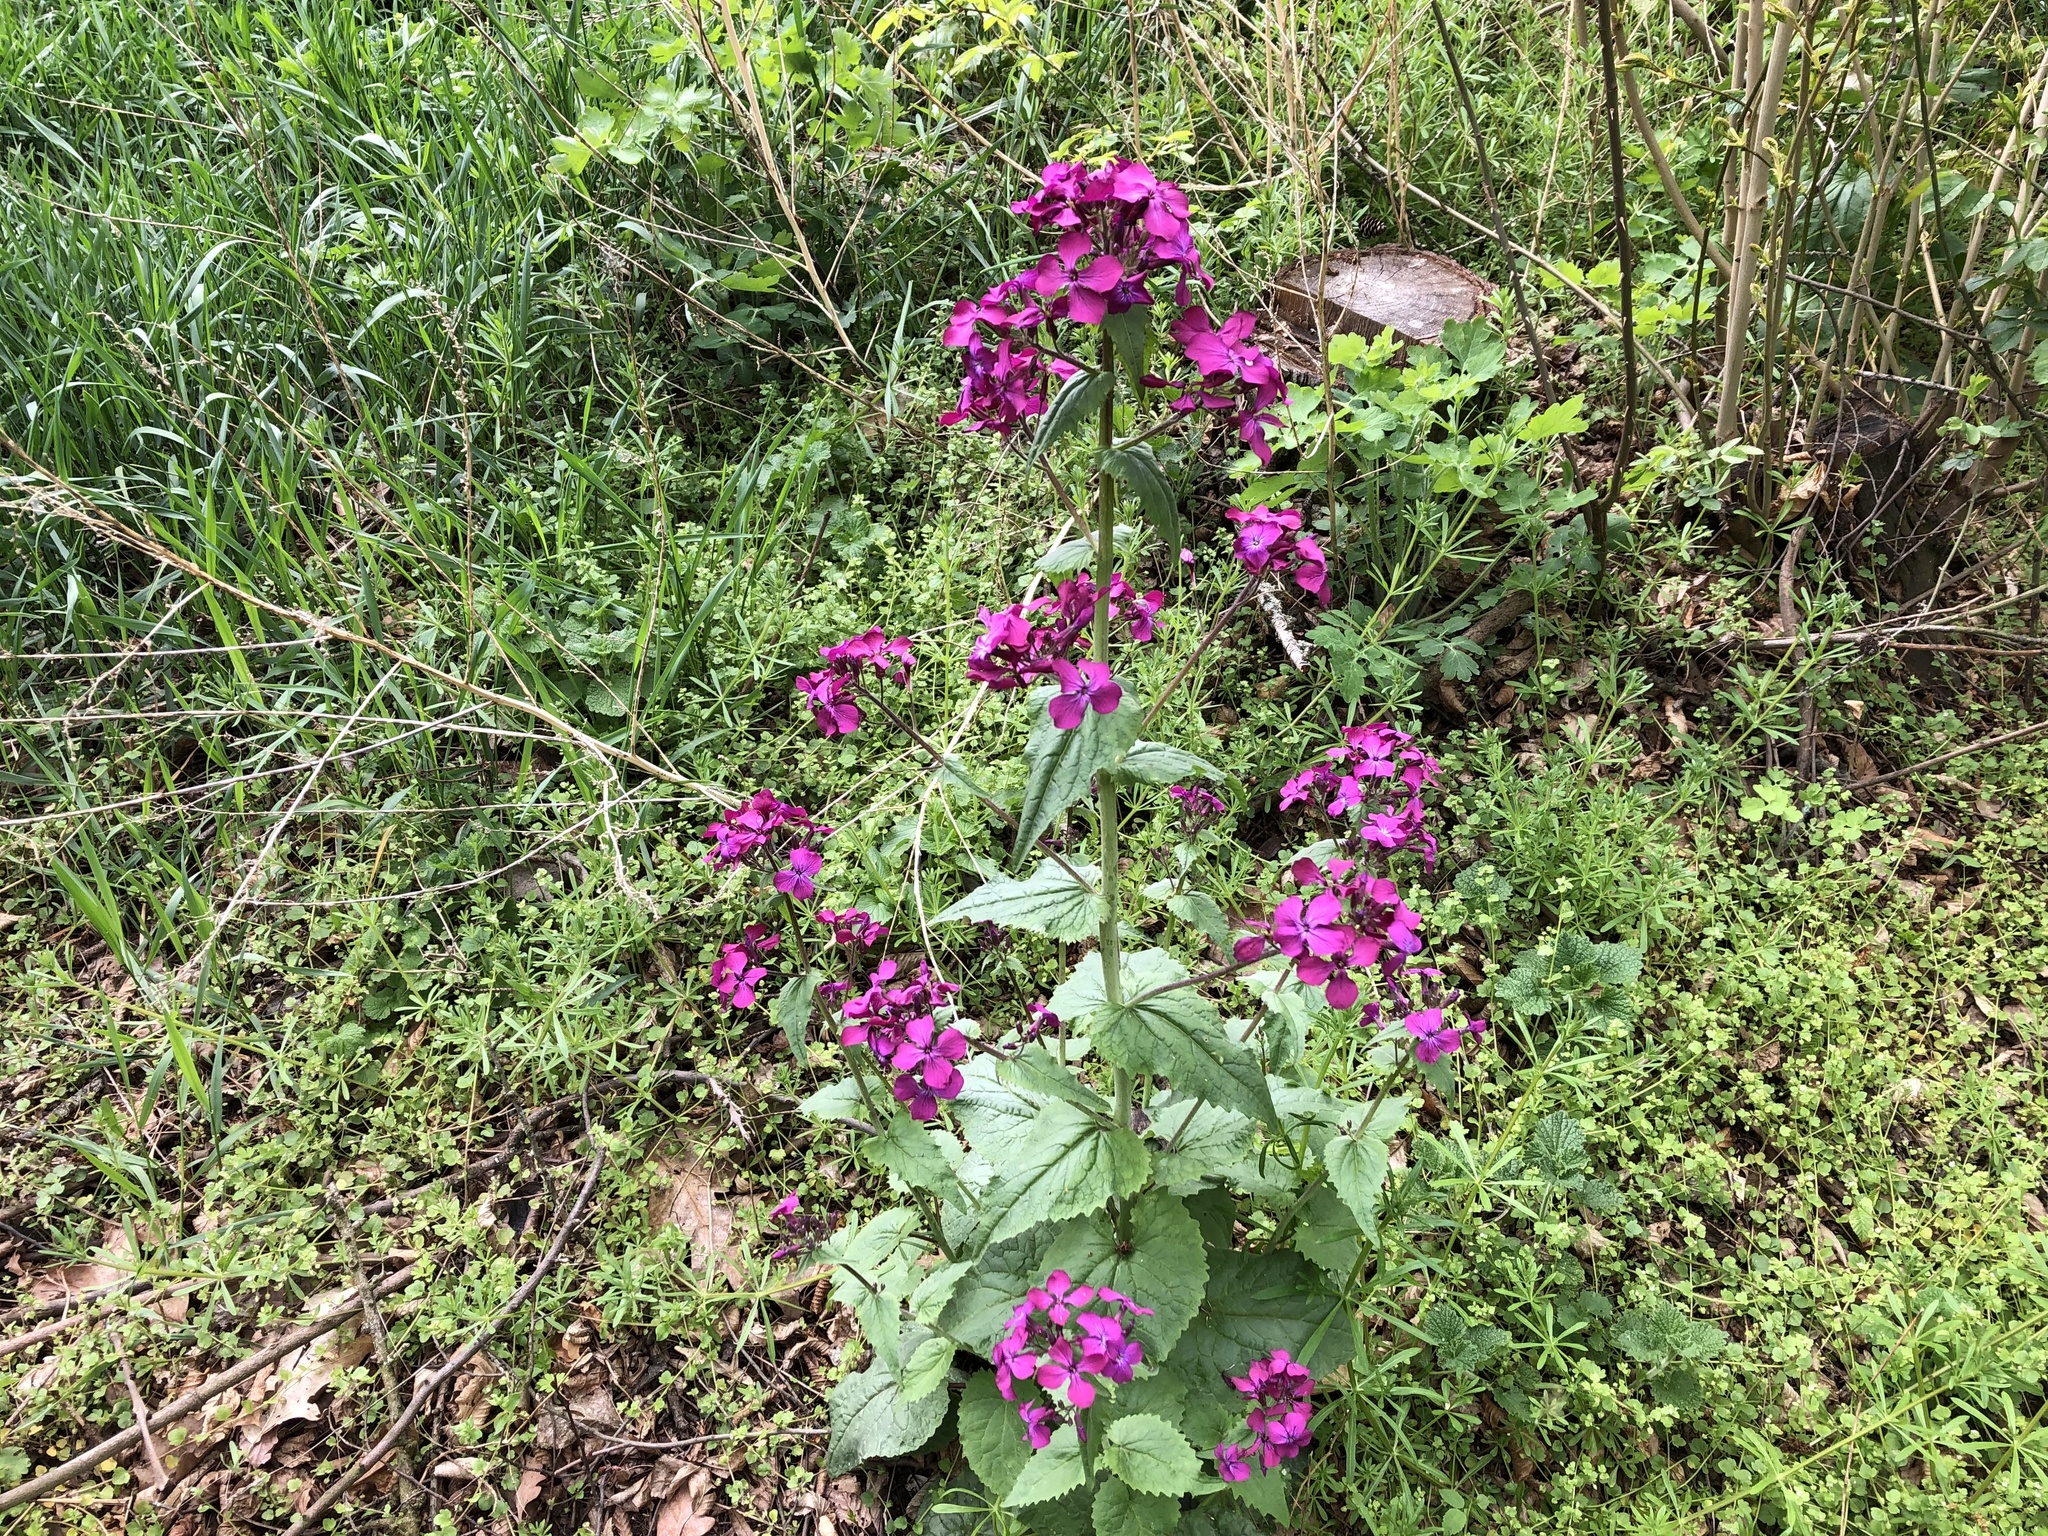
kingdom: Plantae
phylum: Tracheophyta
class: Magnoliopsida
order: Brassicales
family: Brassicaceae
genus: Lunaria
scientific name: Lunaria annua
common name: Honesty
